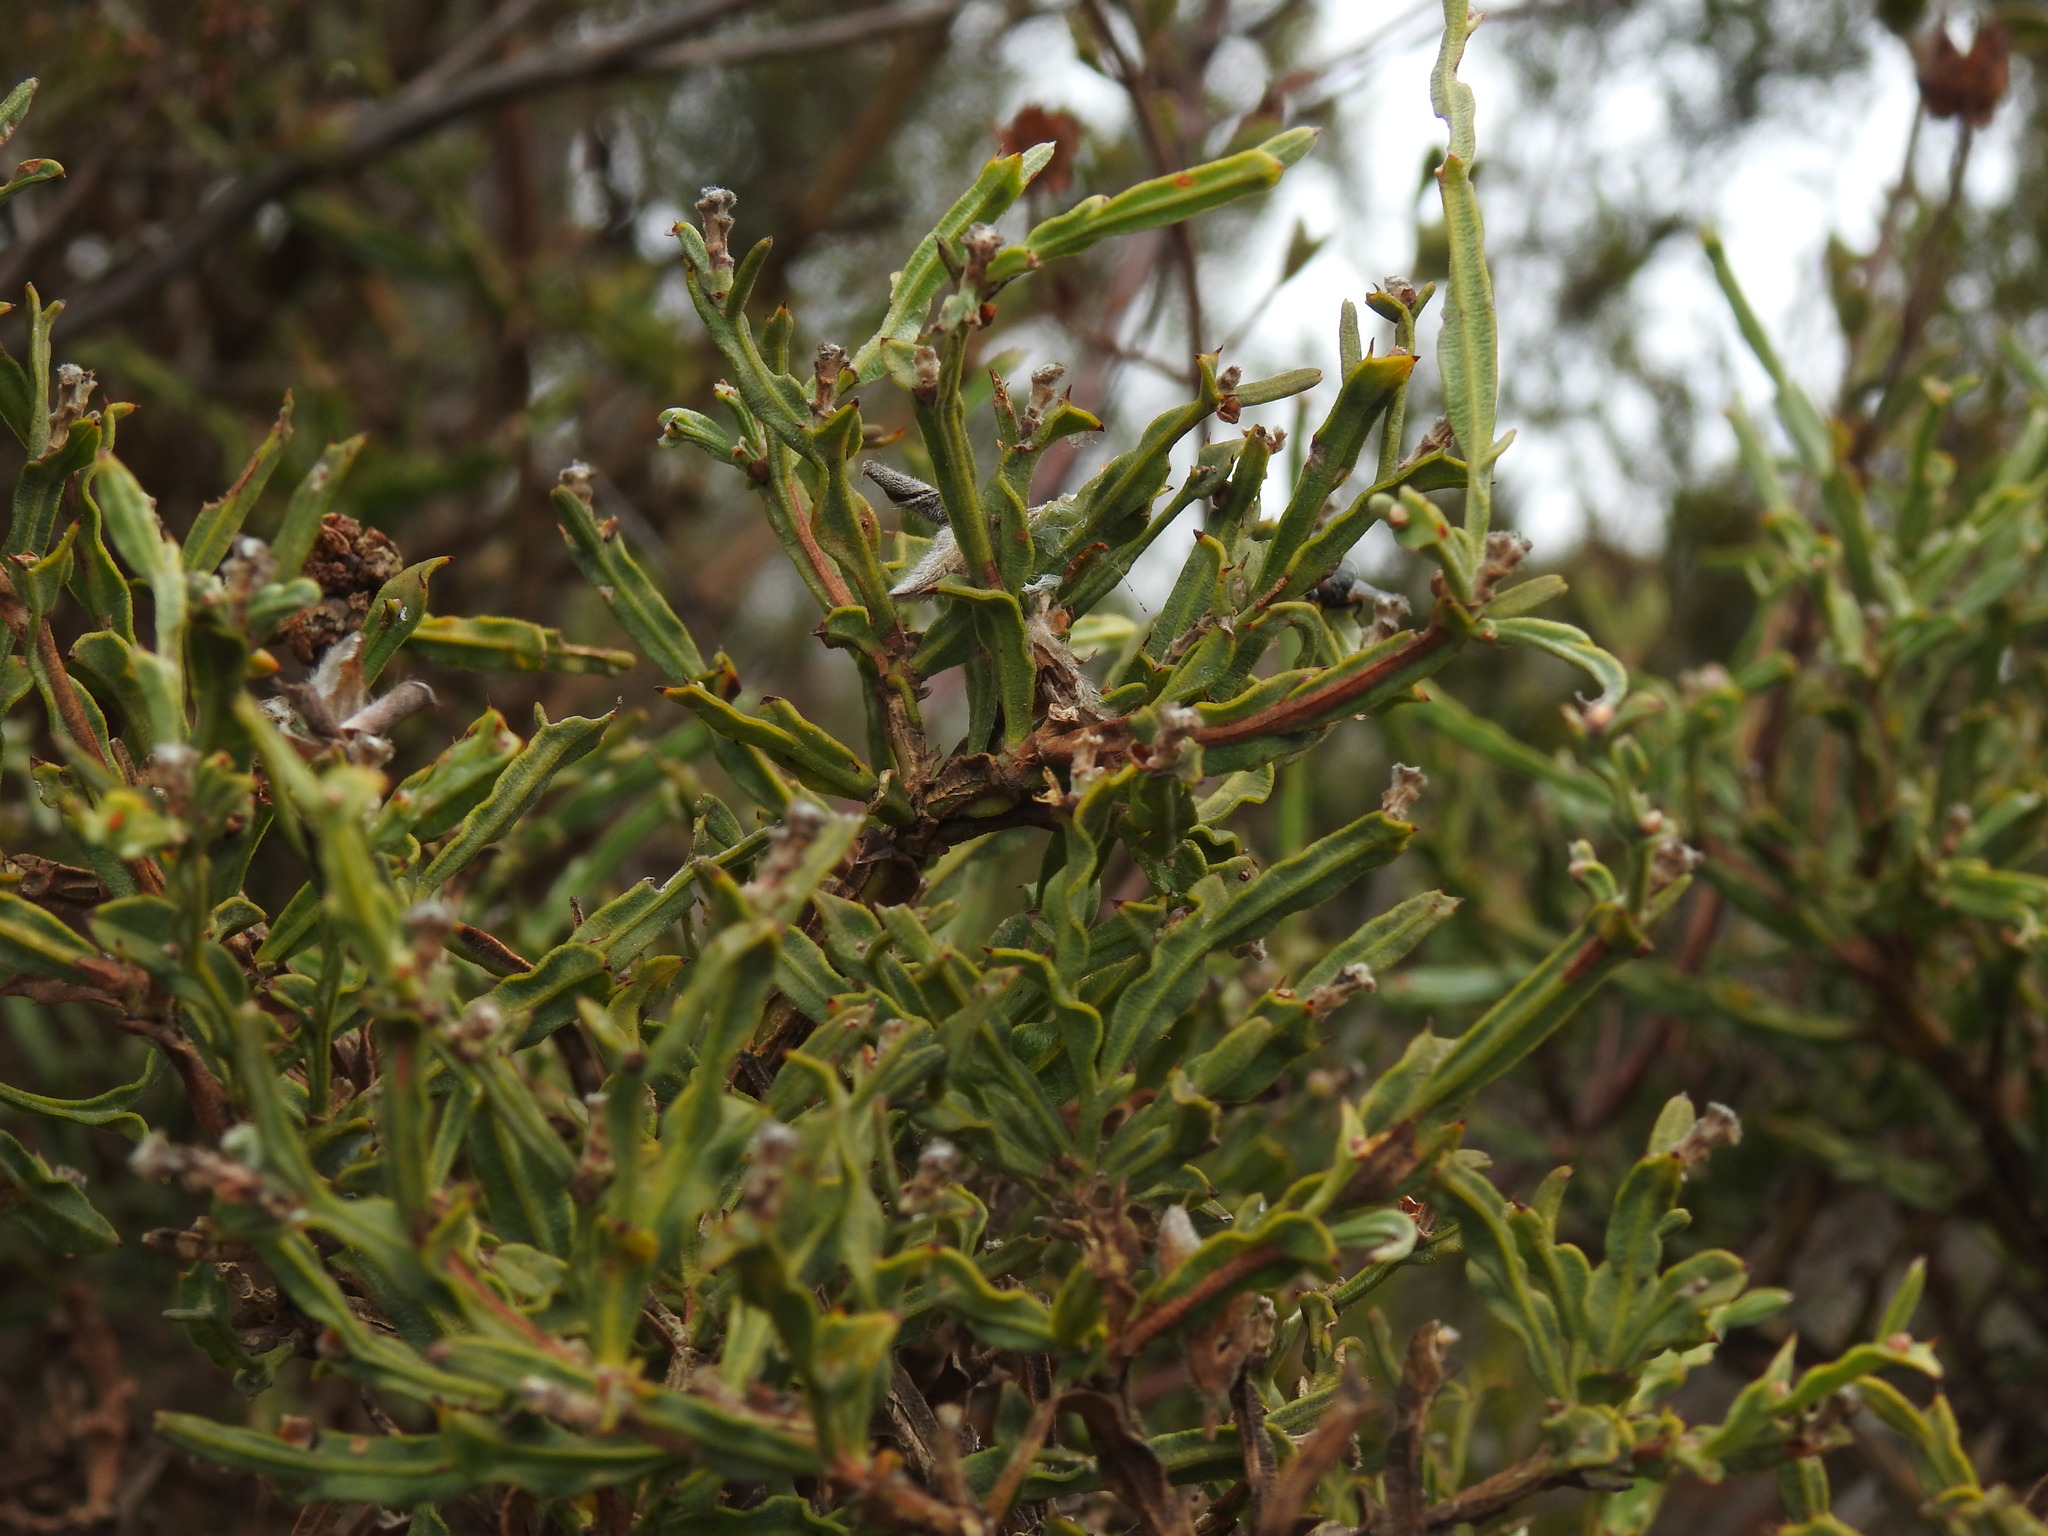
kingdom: Plantae
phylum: Tracheophyta
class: Magnoliopsida
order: Fabales
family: Fabaceae
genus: Genista
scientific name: Genista tridentata
